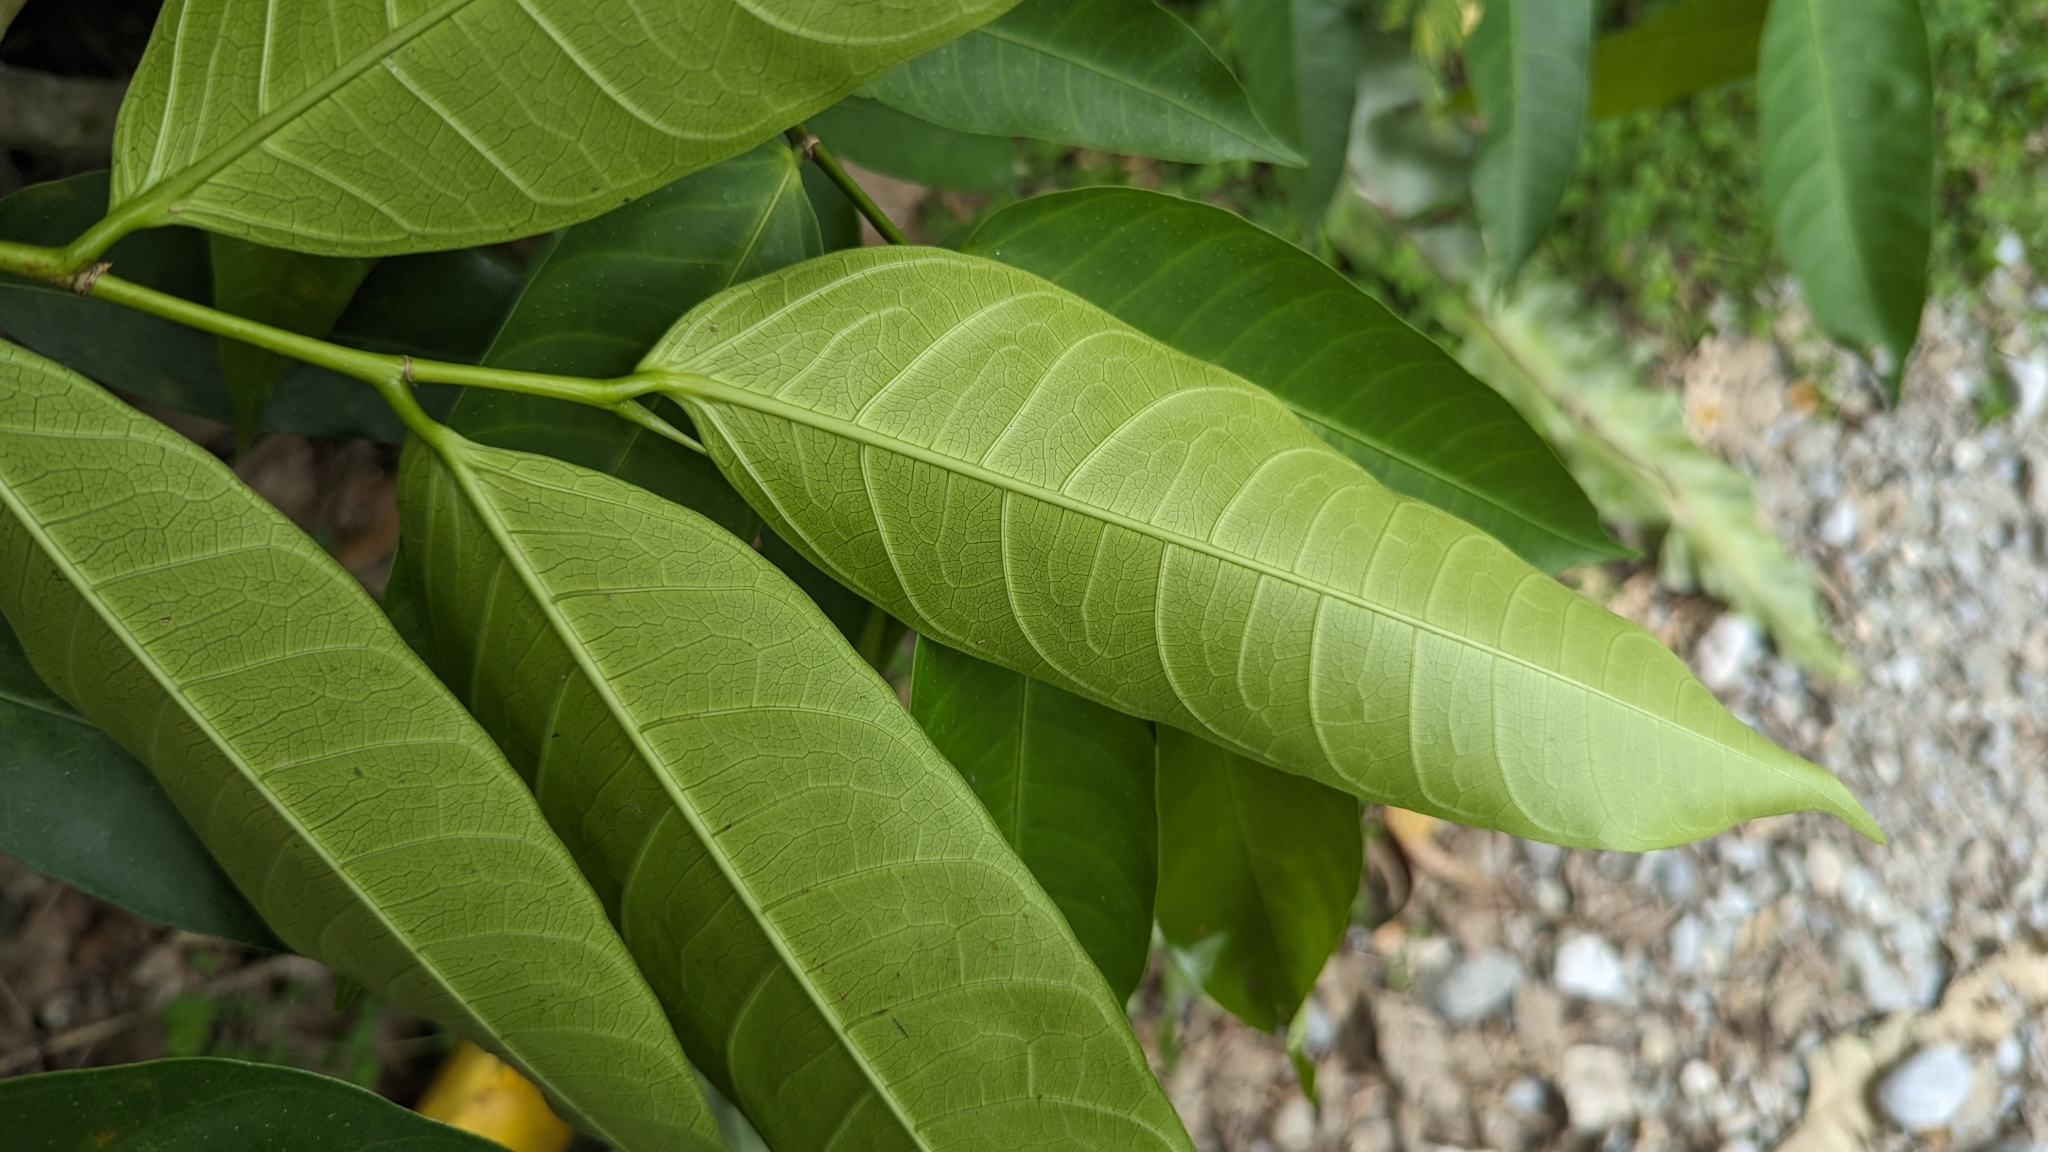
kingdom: Plantae
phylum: Tracheophyta
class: Magnoliopsida
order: Rosales
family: Moraceae
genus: Ficus
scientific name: Ficus virgata
